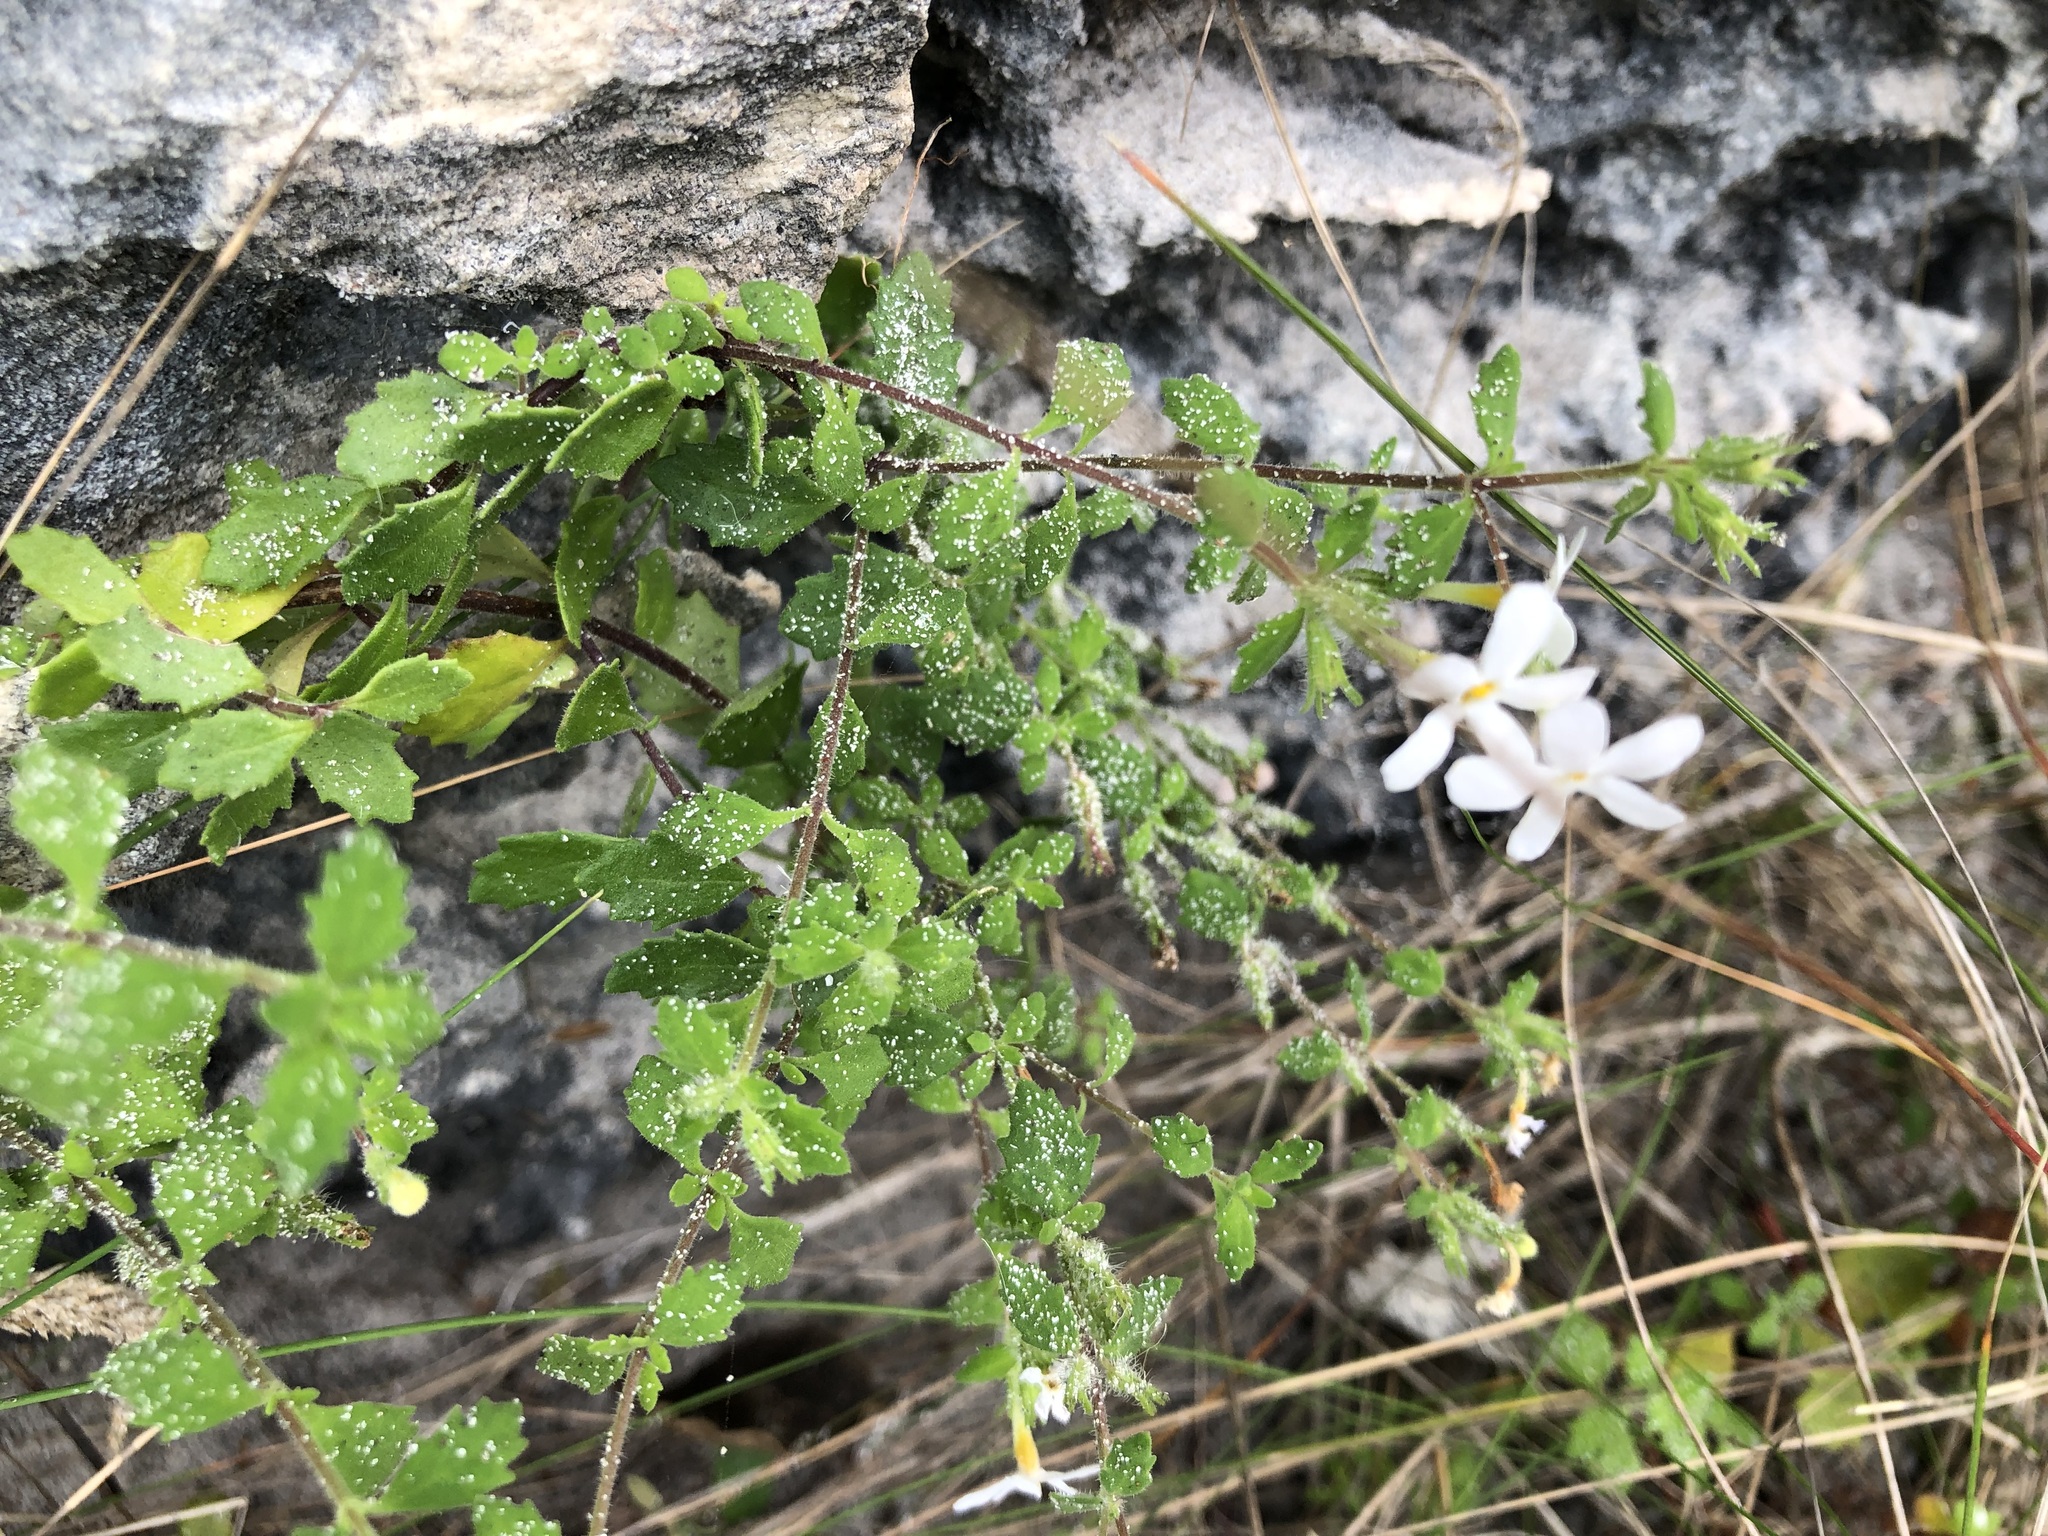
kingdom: Plantae
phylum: Tracheophyta
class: Magnoliopsida
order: Lamiales
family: Scrophulariaceae
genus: Chaenostoma
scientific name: Chaenostoma hispidum
